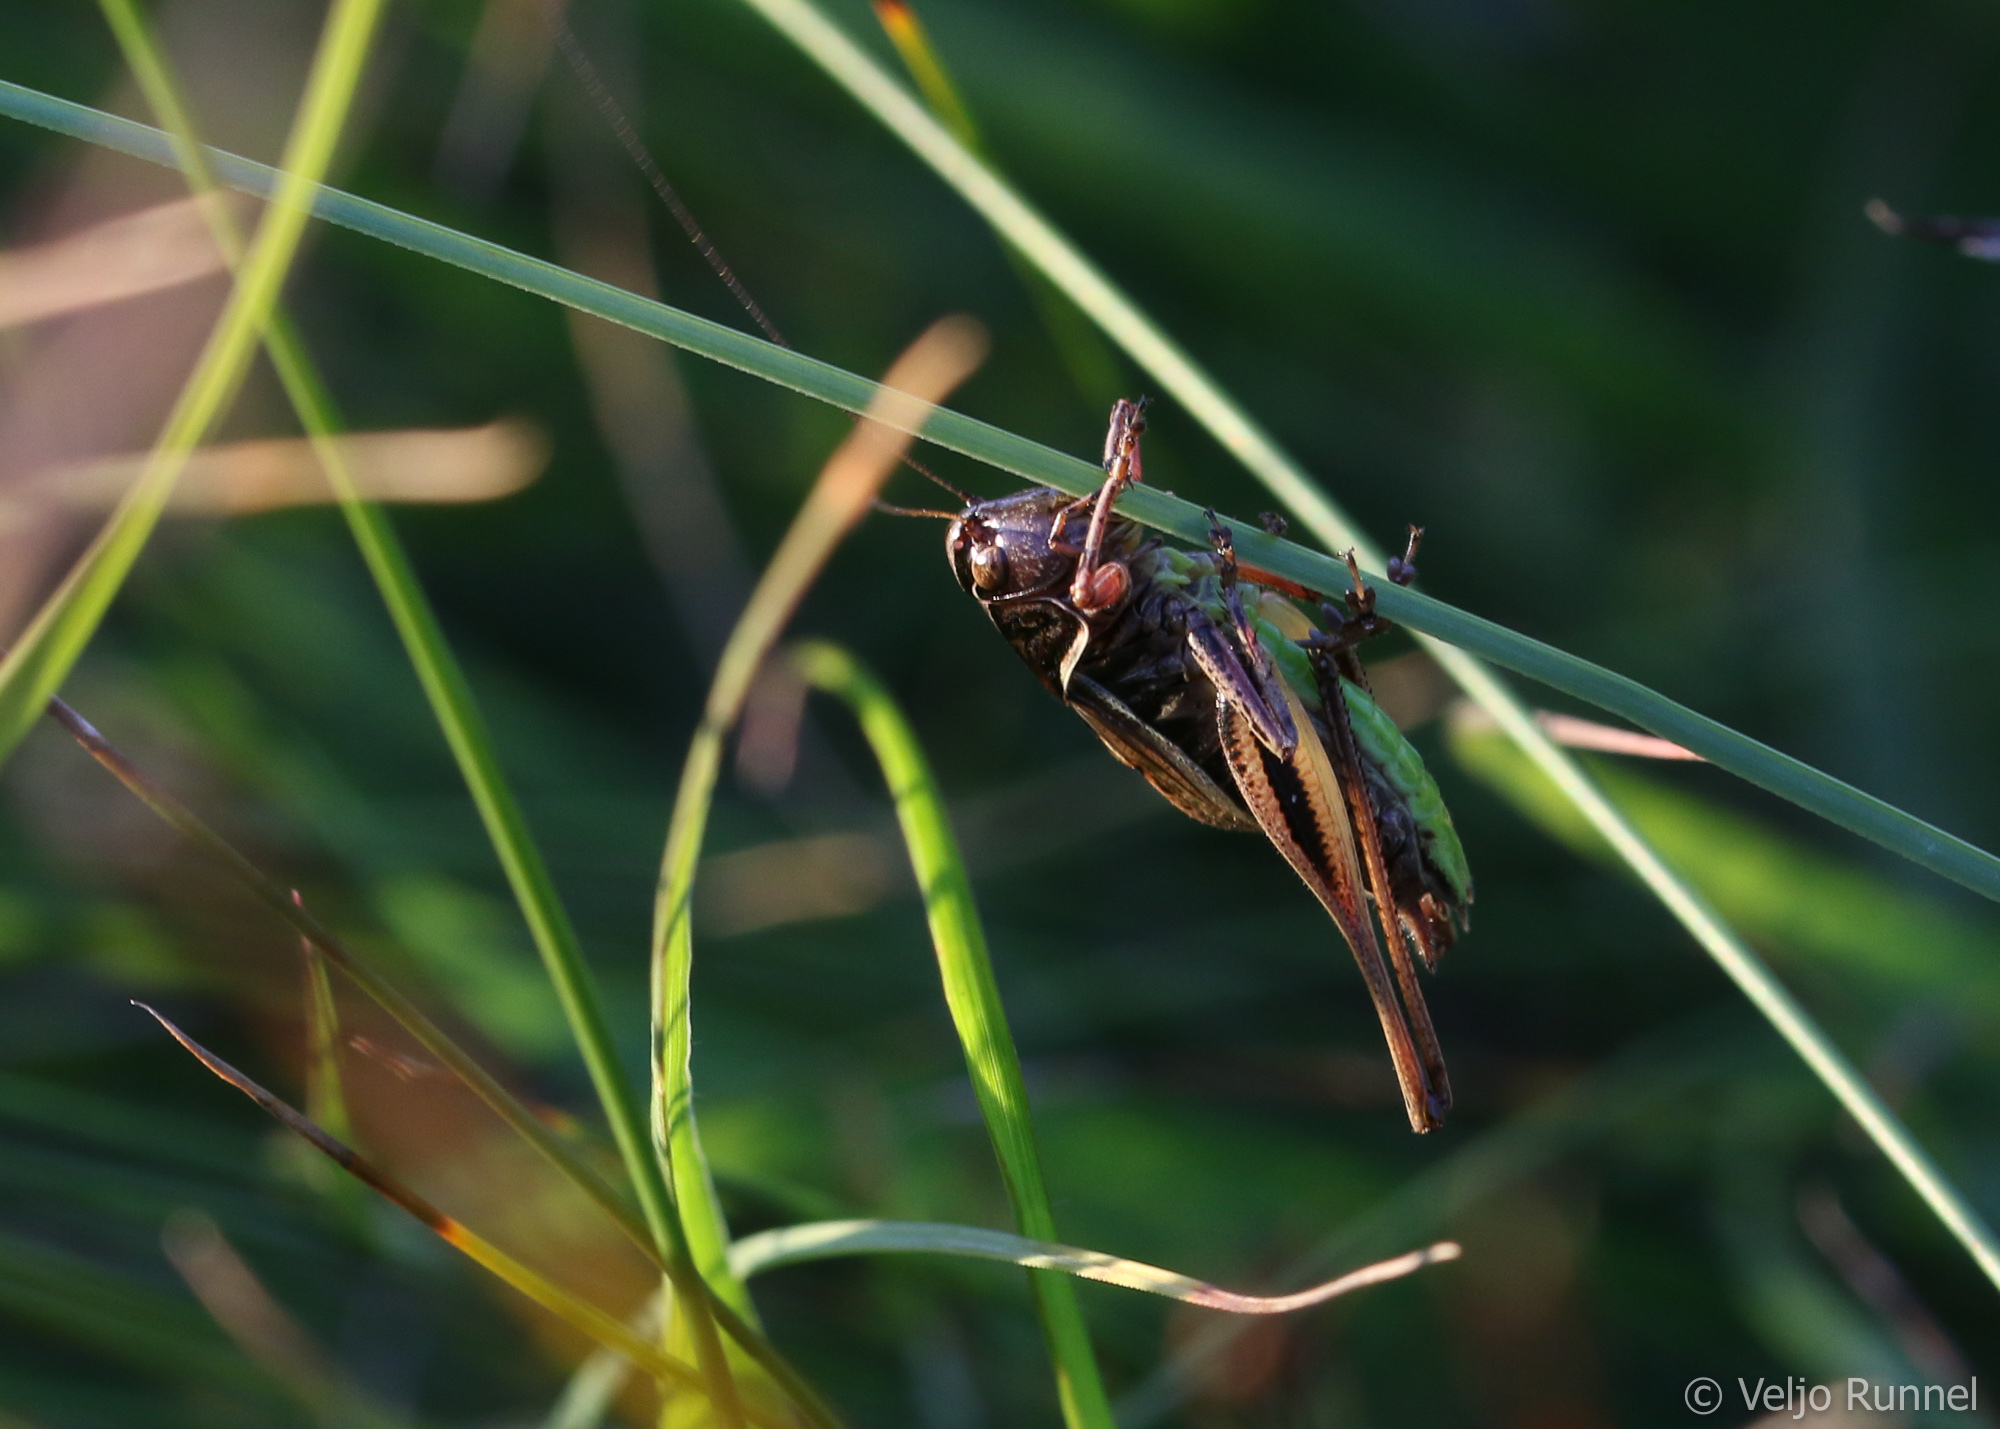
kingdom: Animalia
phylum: Arthropoda
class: Insecta
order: Orthoptera
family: Tettigoniidae
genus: Metrioptera
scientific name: Metrioptera brachyptera
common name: Bog bush-cricket
